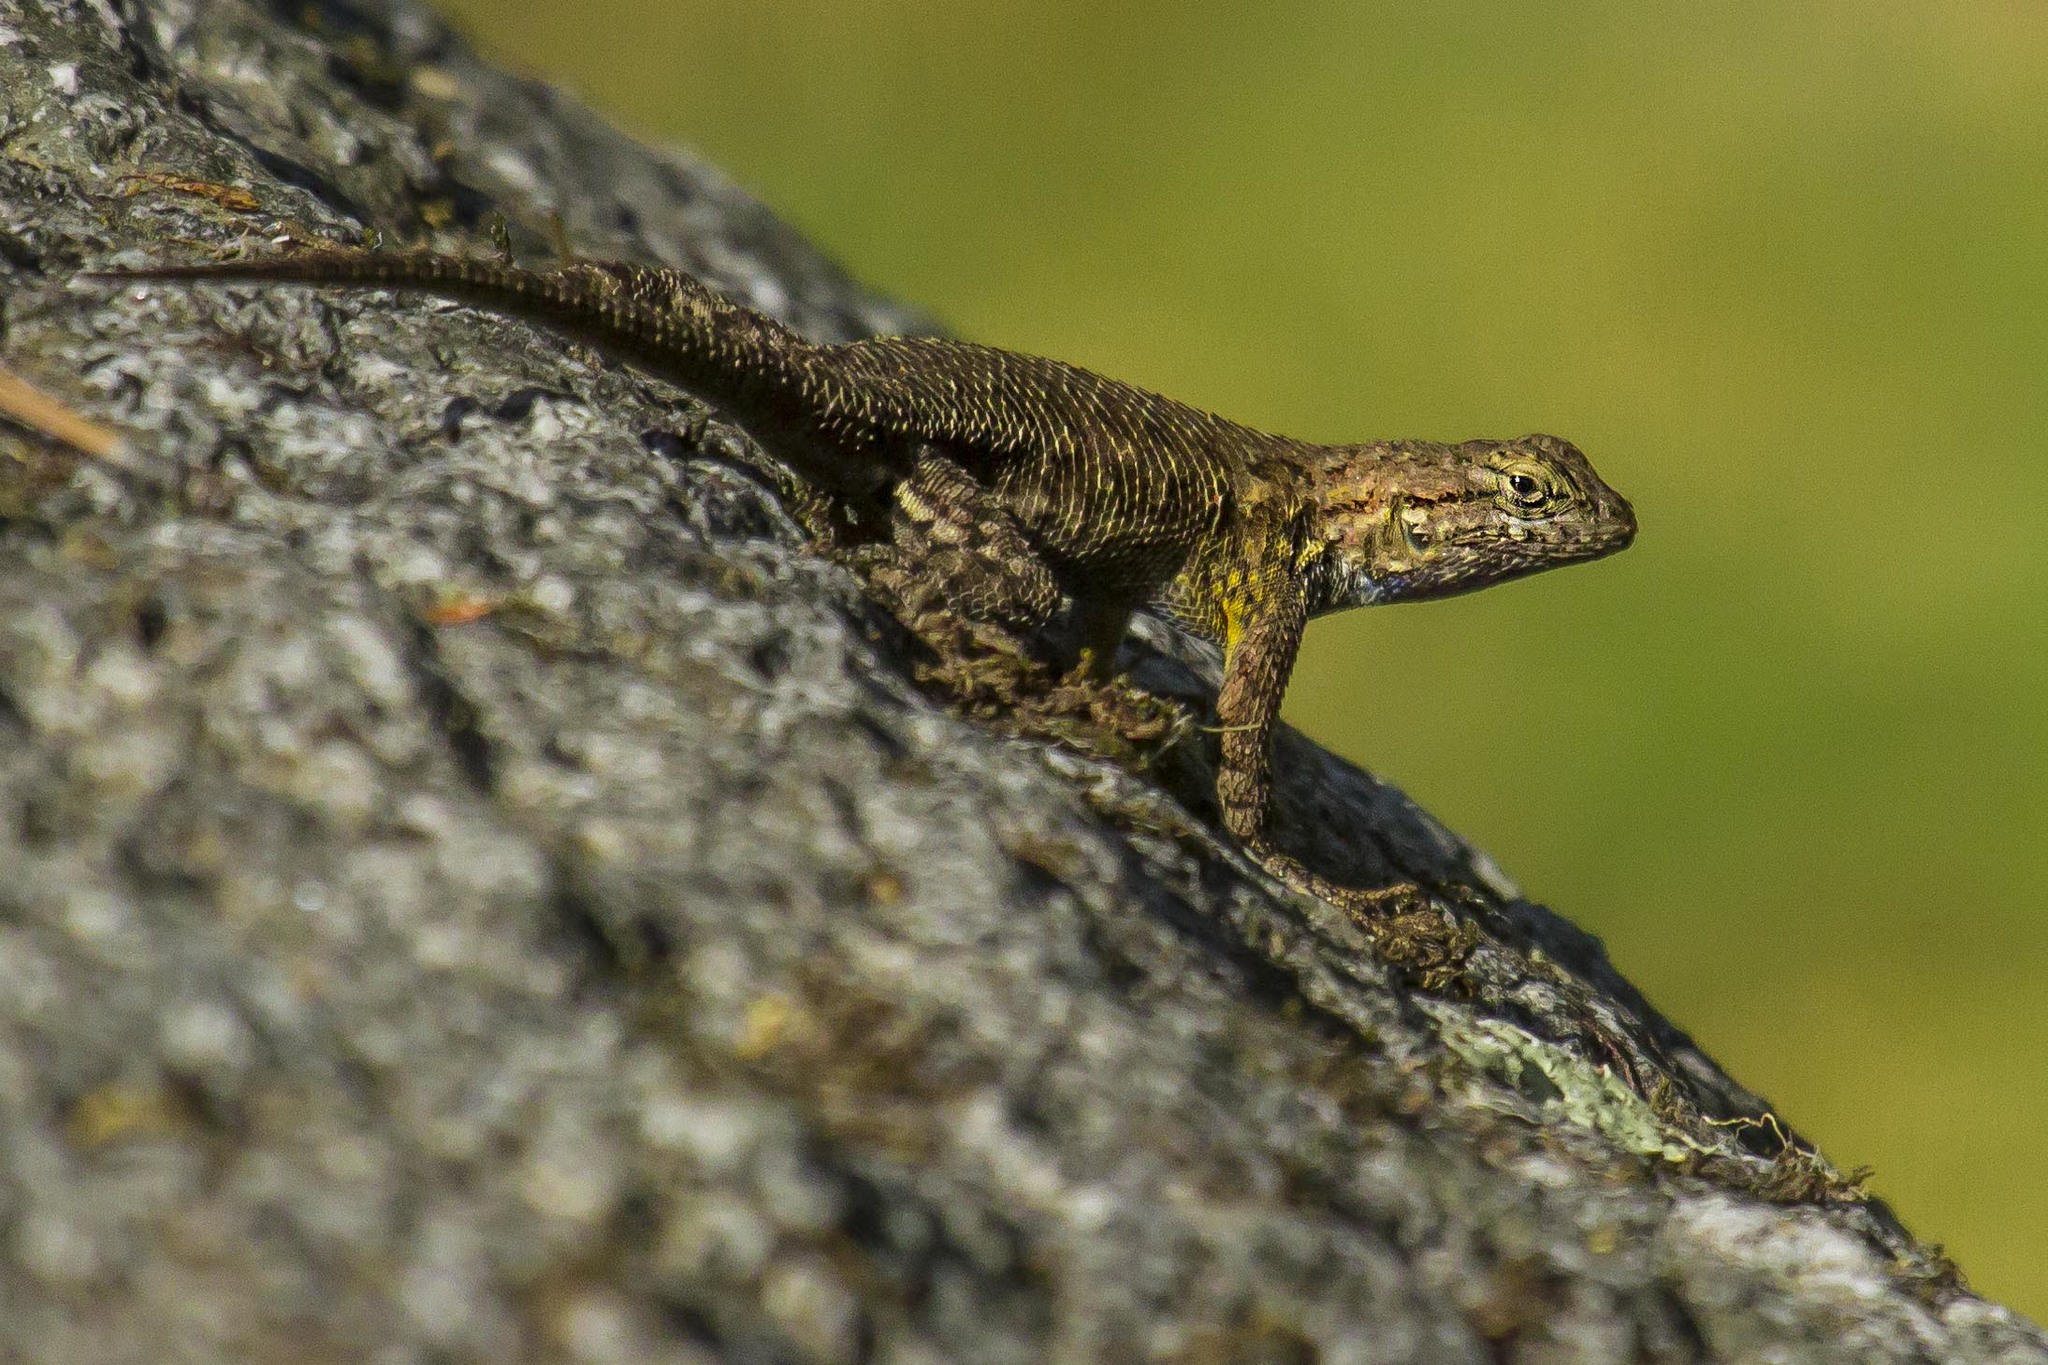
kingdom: Animalia
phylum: Chordata
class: Squamata
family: Phrynosomatidae
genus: Sceloporus
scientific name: Sceloporus occidentalis
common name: Western fence lizard
